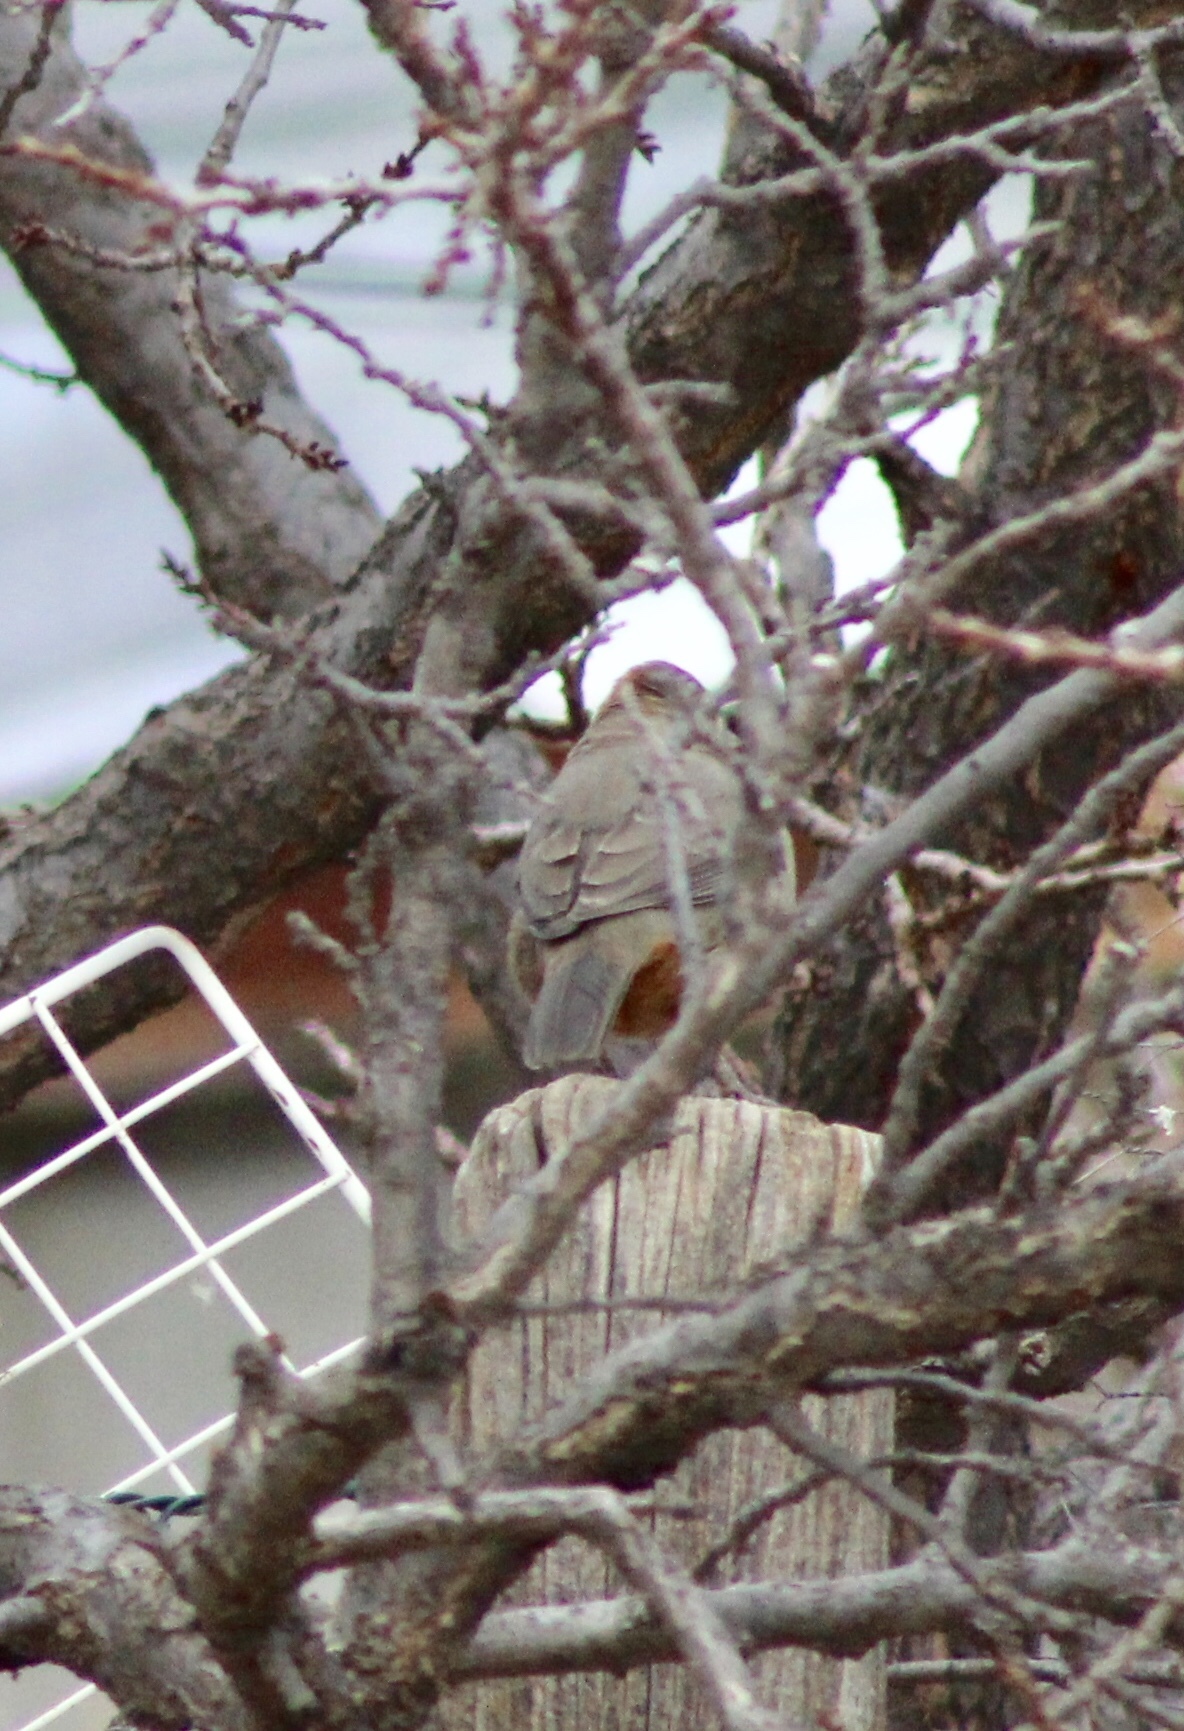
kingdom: Animalia
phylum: Chordata
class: Aves
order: Passeriformes
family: Passerellidae
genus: Melozone
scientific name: Melozone fusca
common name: Canyon towhee
